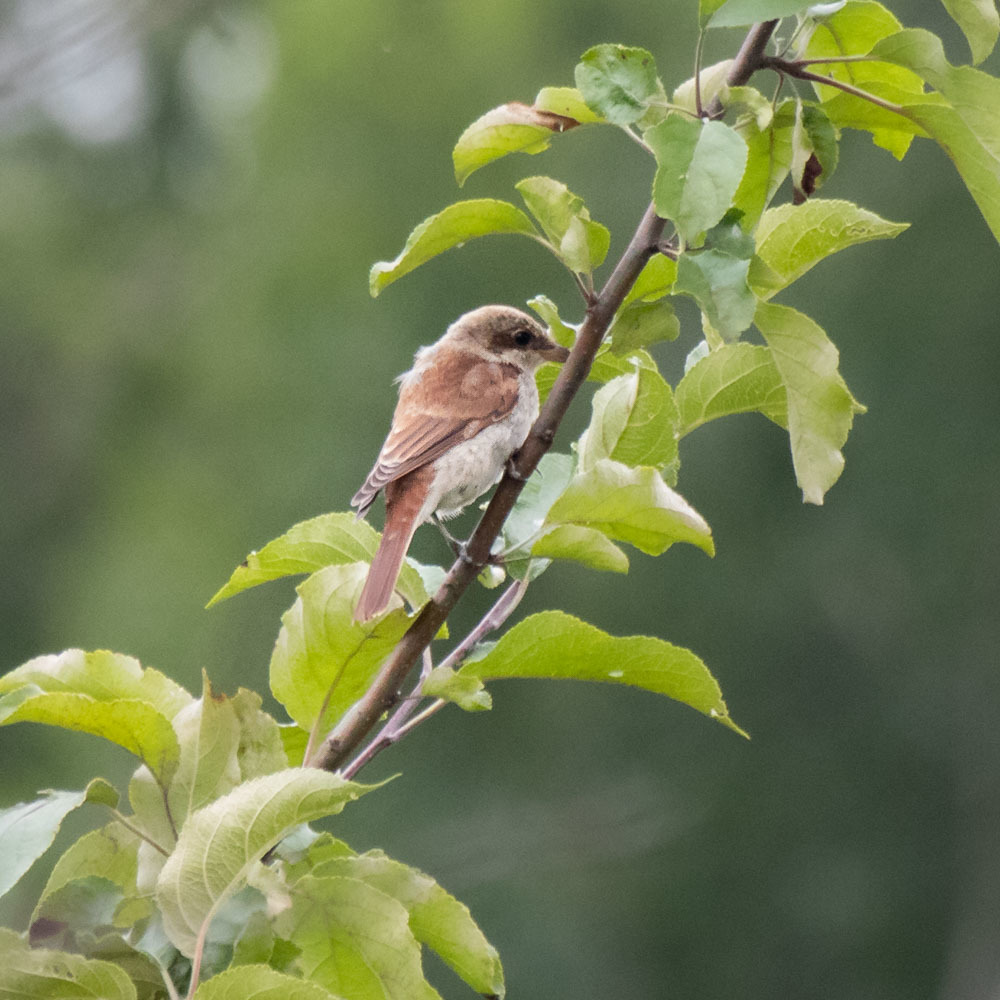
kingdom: Animalia
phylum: Chordata
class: Aves
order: Passeriformes
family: Laniidae
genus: Lanius
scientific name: Lanius collurio
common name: Red-backed shrike
